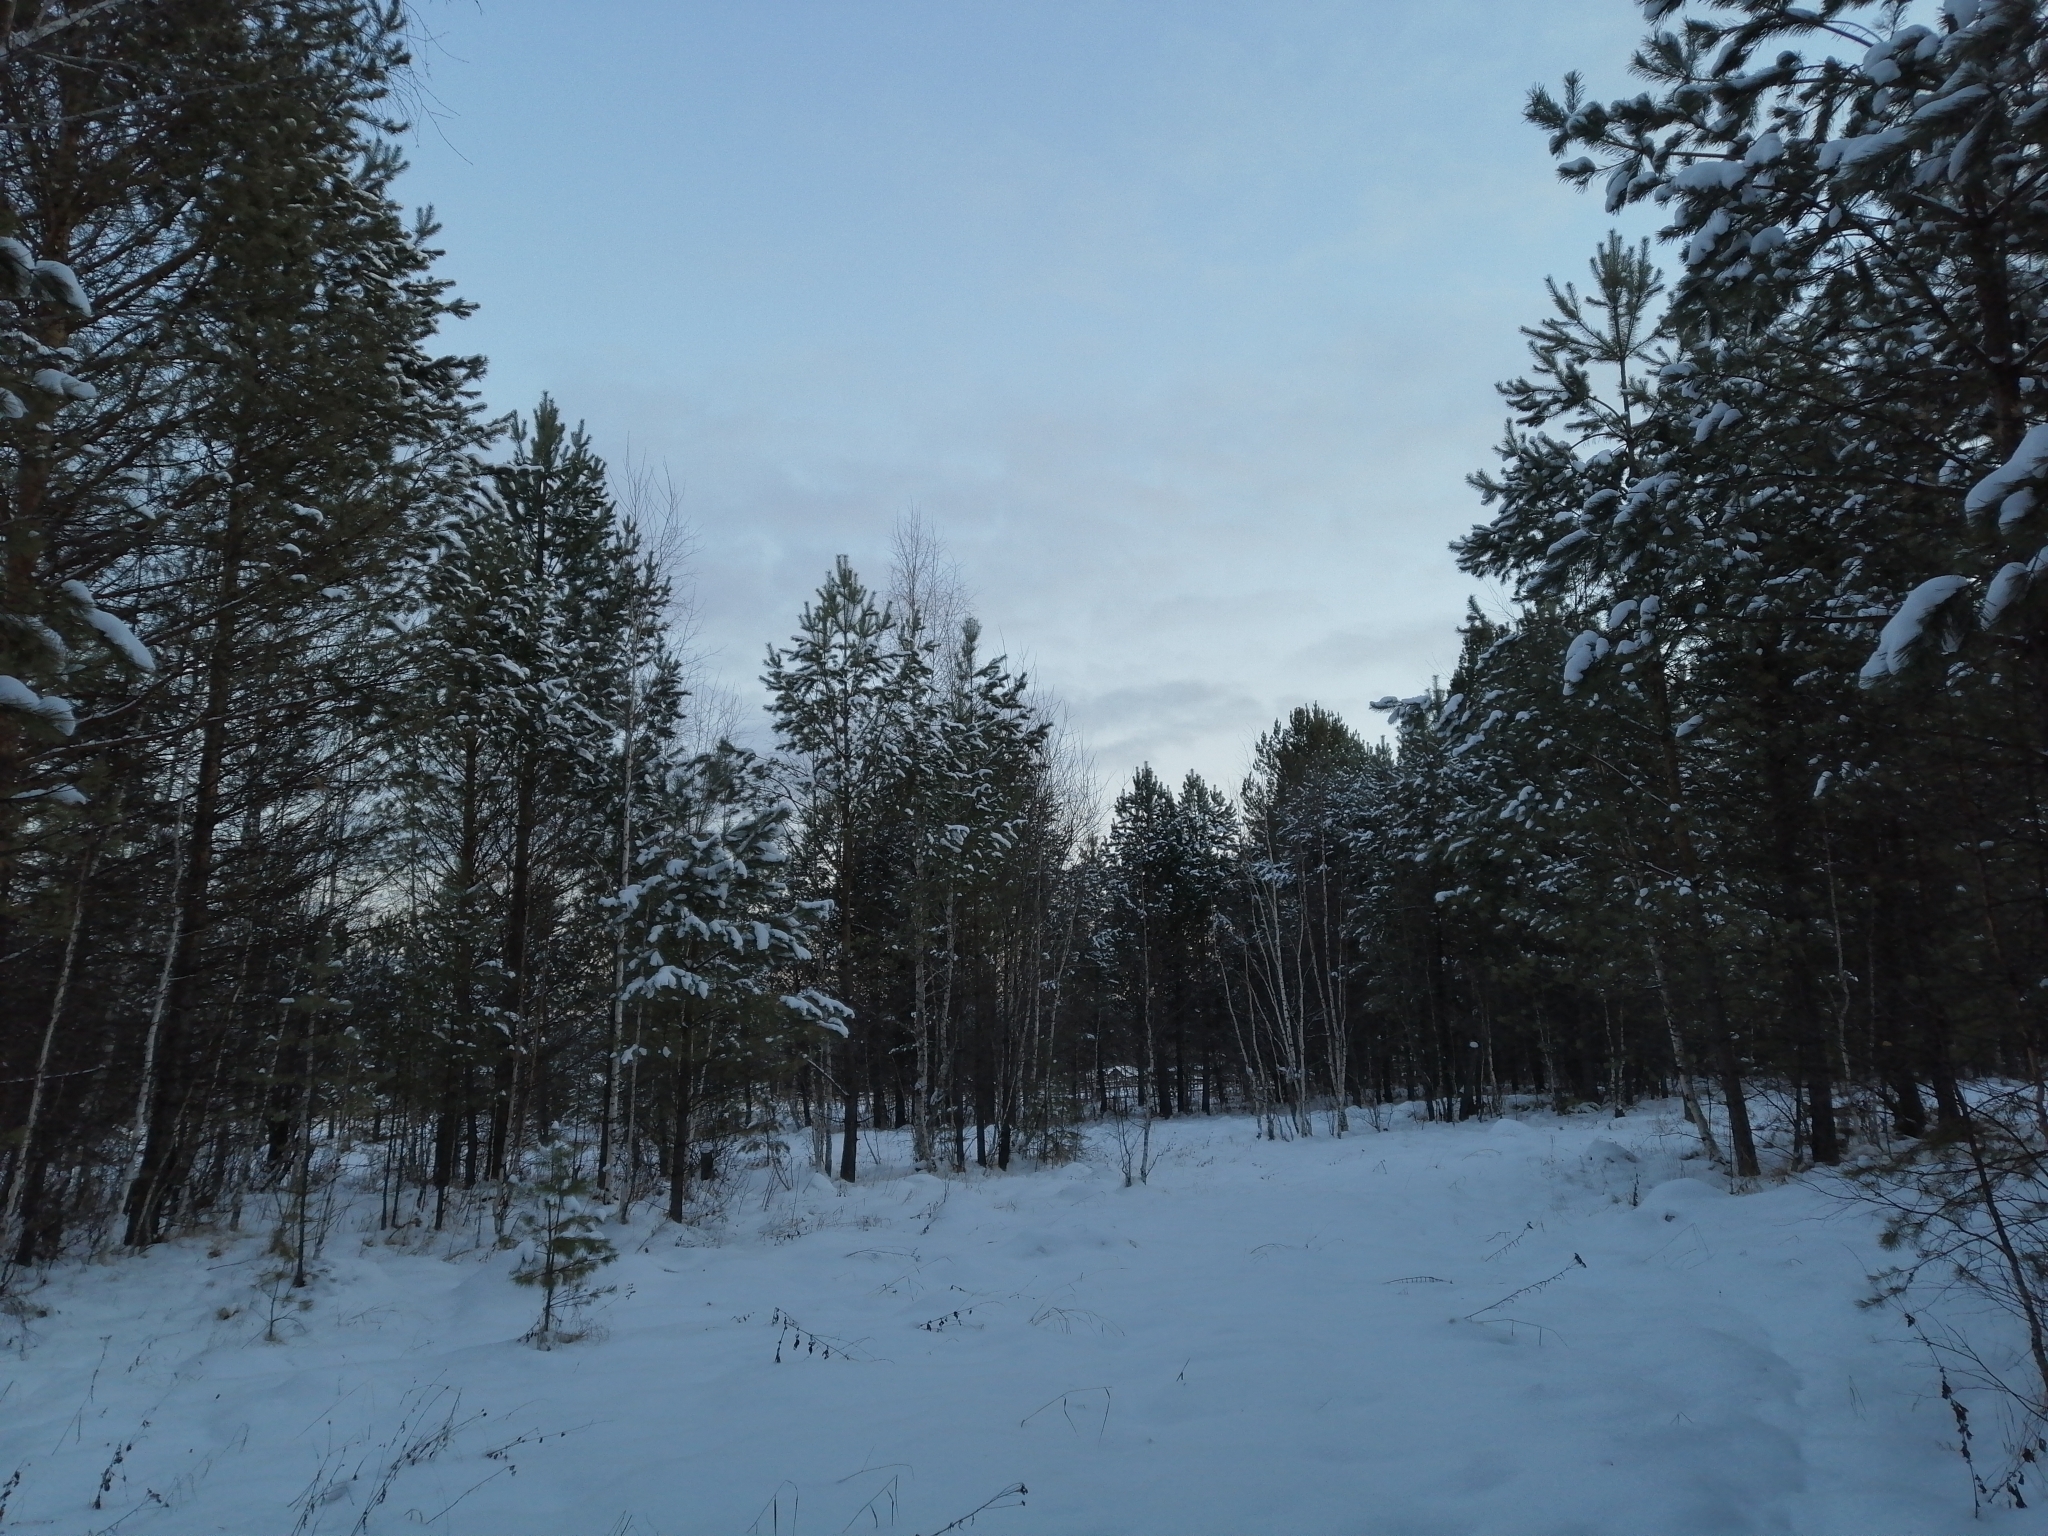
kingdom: Plantae
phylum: Tracheophyta
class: Pinopsida
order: Pinales
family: Pinaceae
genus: Pinus
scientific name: Pinus sylvestris
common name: Scots pine
